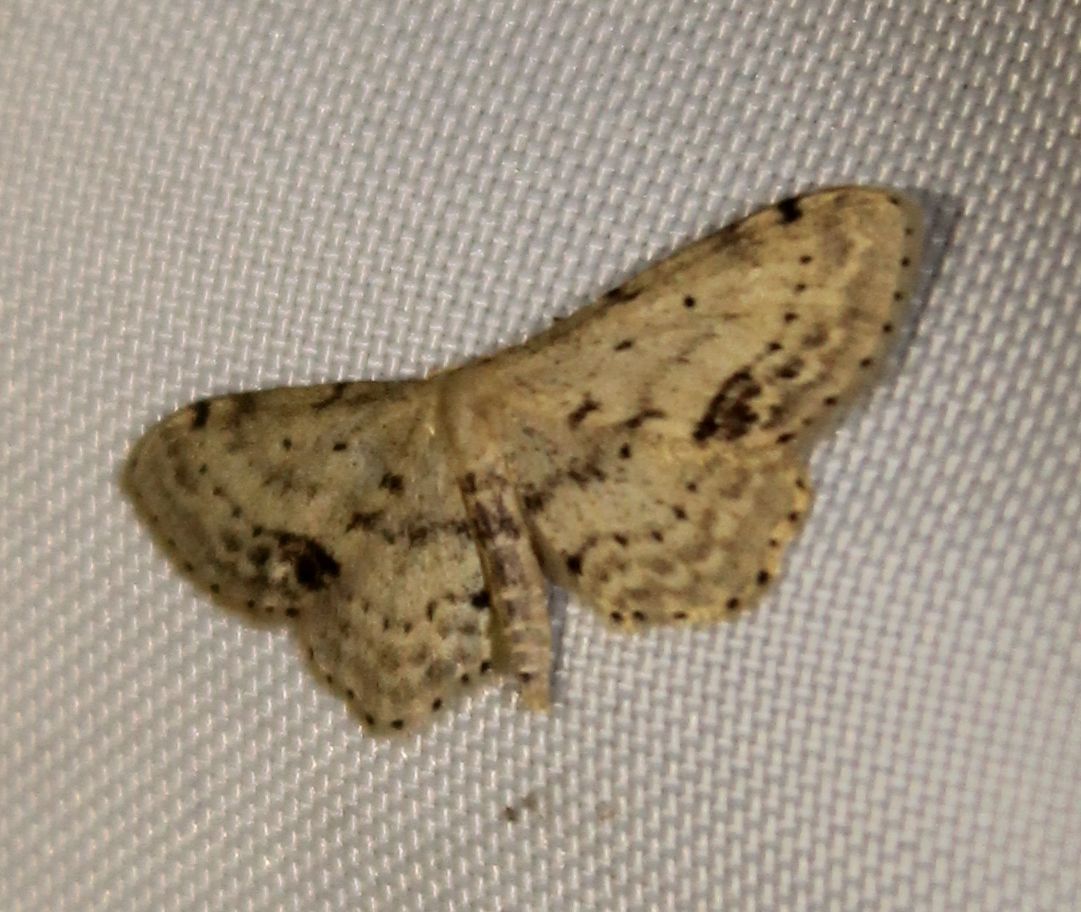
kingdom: Animalia
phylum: Arthropoda
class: Insecta
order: Lepidoptera
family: Geometridae
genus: Idaea
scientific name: Idaea dimidiata
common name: Single-dotted wave
